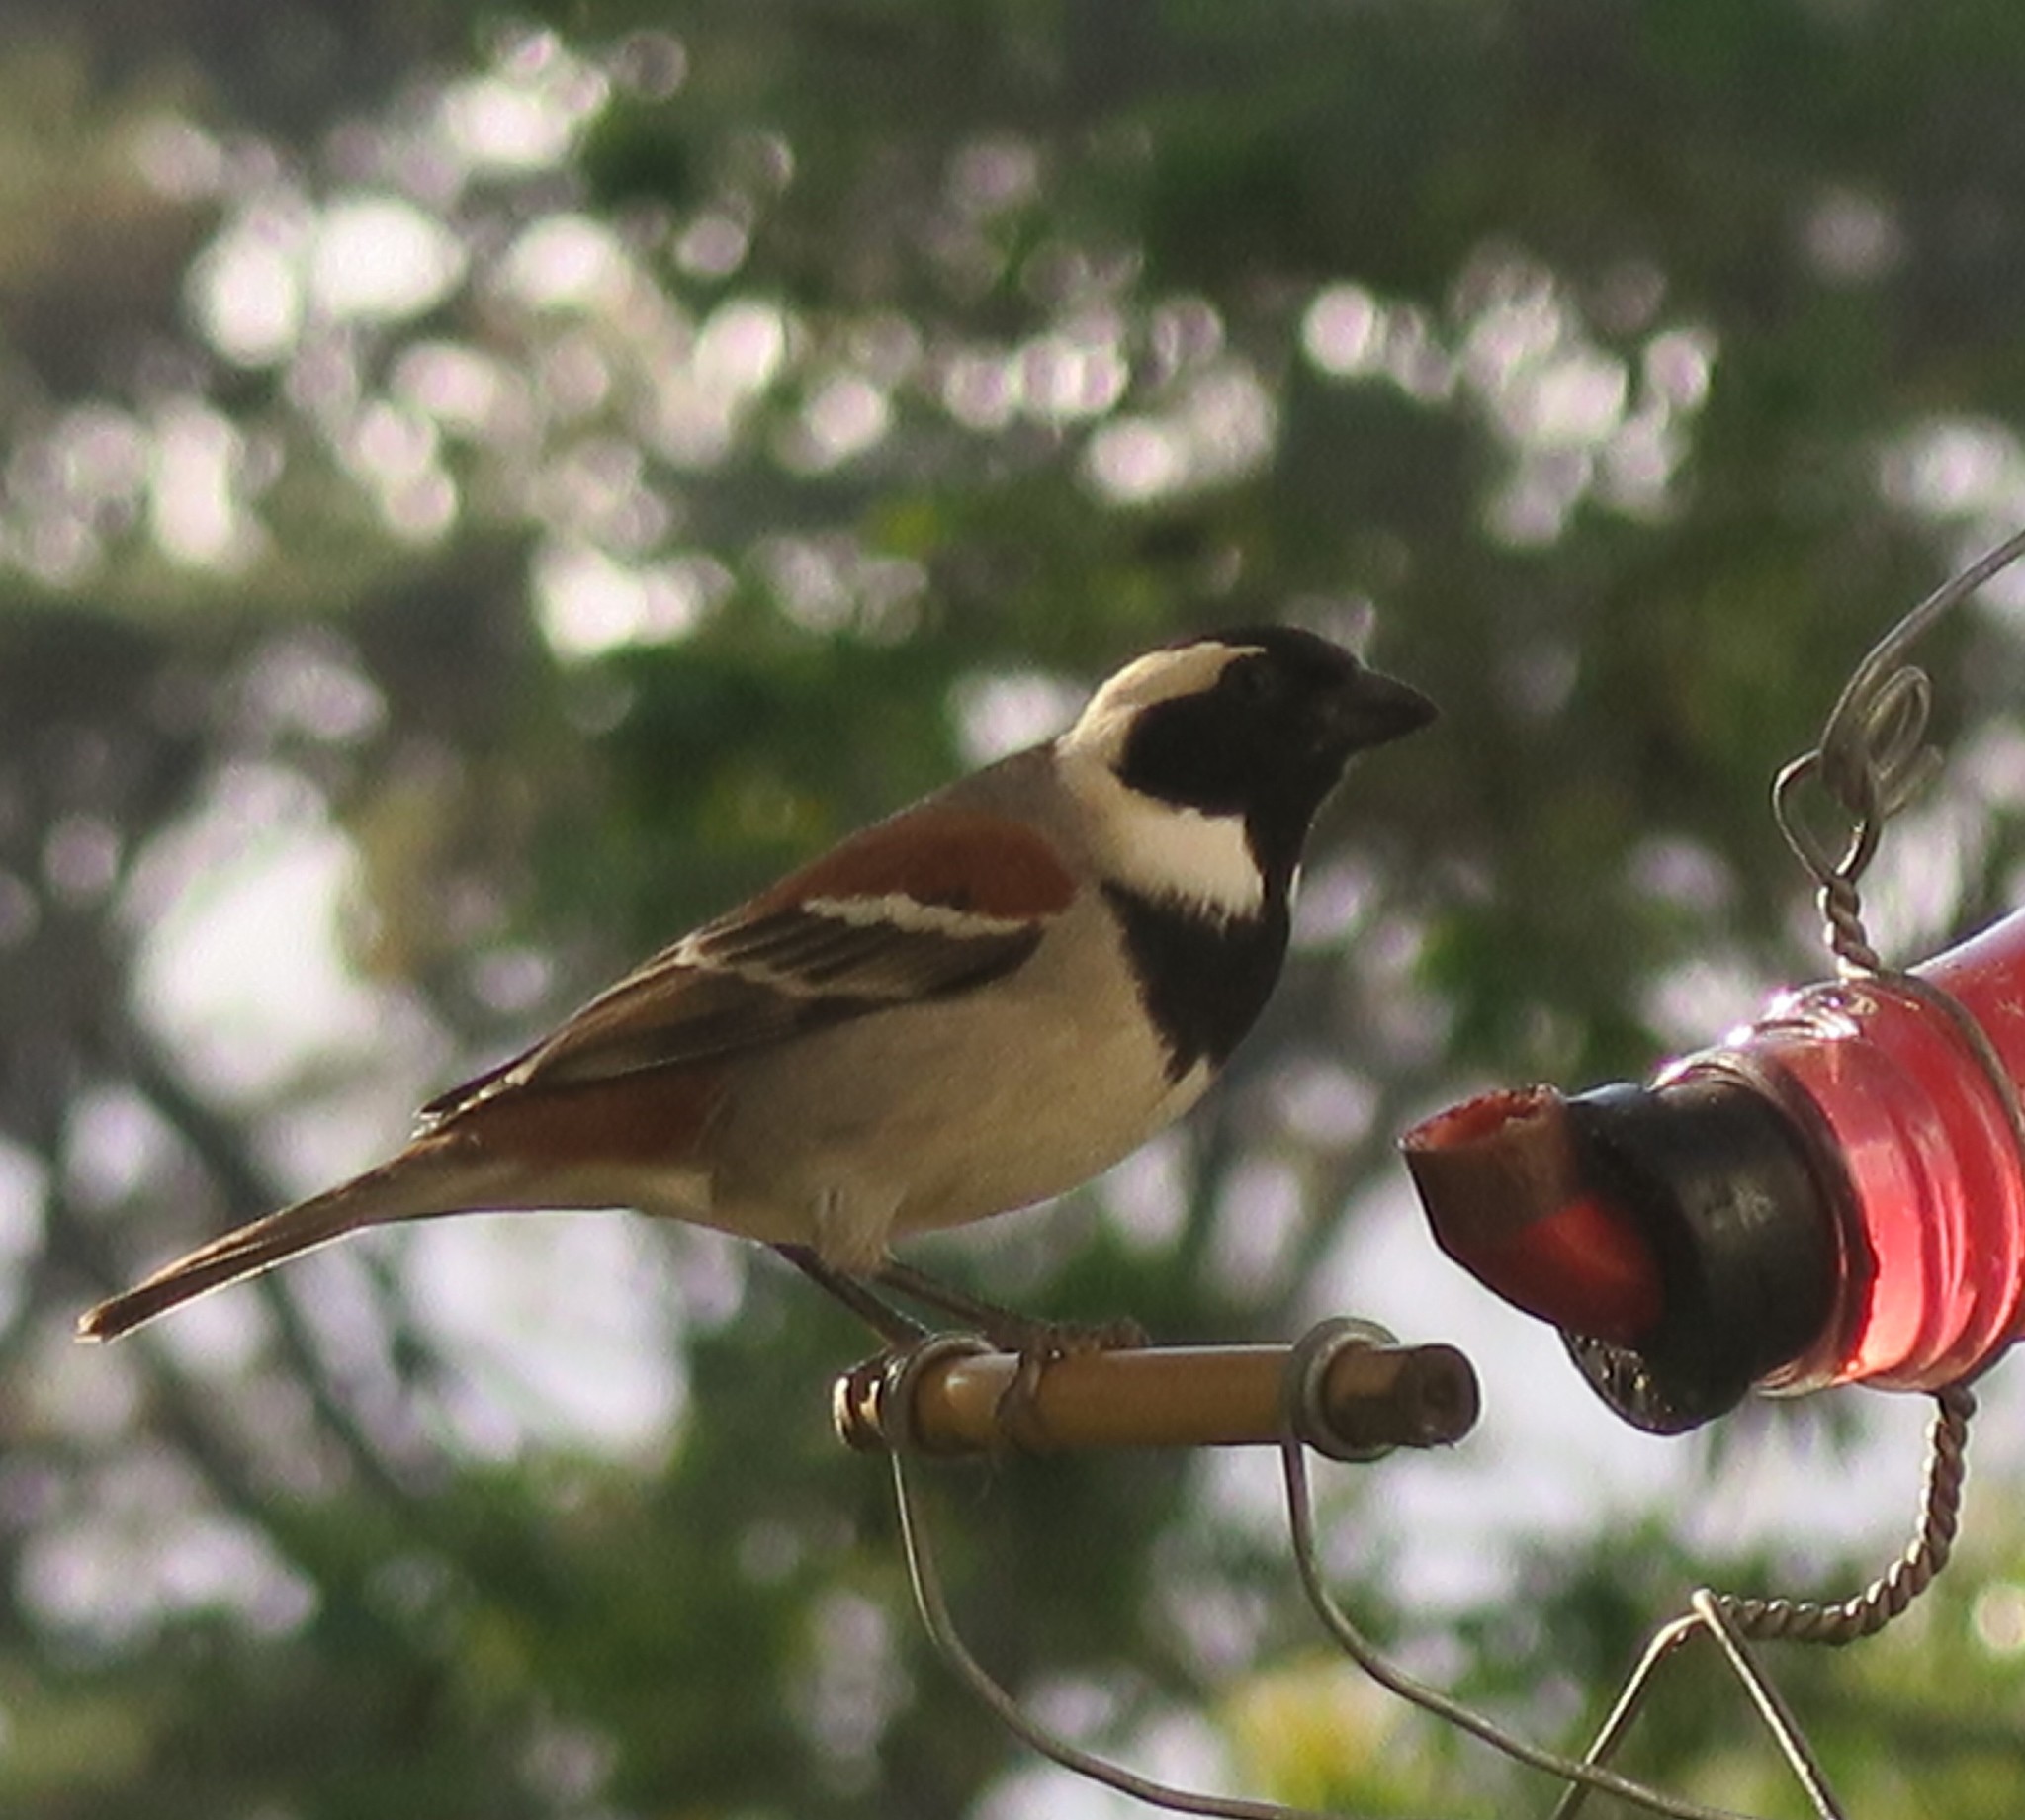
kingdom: Animalia
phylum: Chordata
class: Aves
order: Passeriformes
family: Passeridae
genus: Passer
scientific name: Passer melanurus
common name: Cape sparrow
